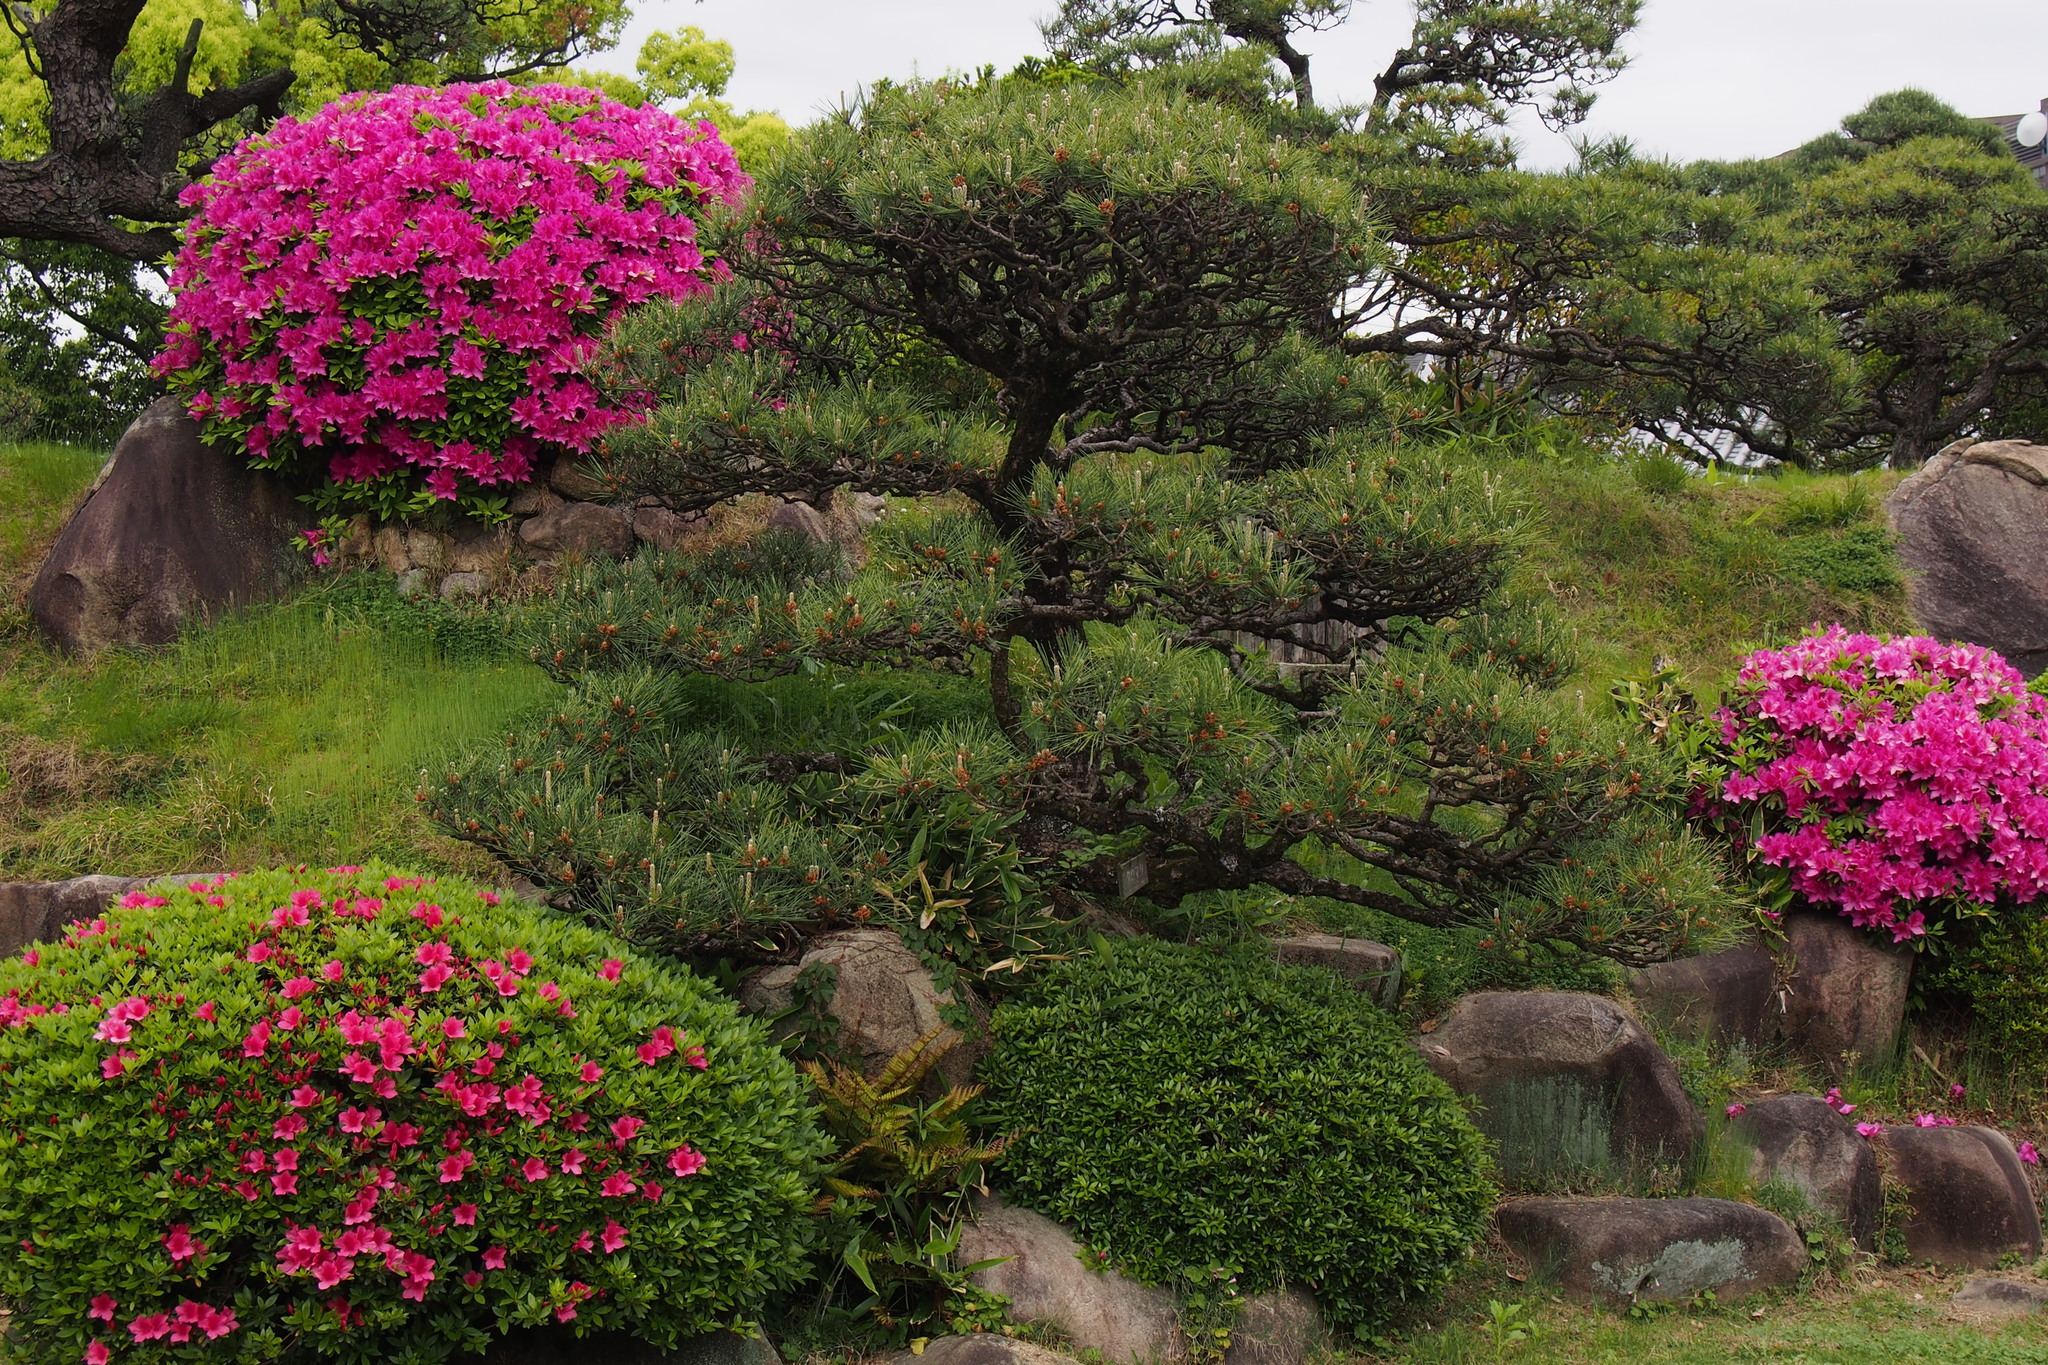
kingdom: Plantae
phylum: Tracheophyta
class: Pinopsida
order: Pinales
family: Pinaceae
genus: Pinus
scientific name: Pinus thunbergii
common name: Japanese black pine
